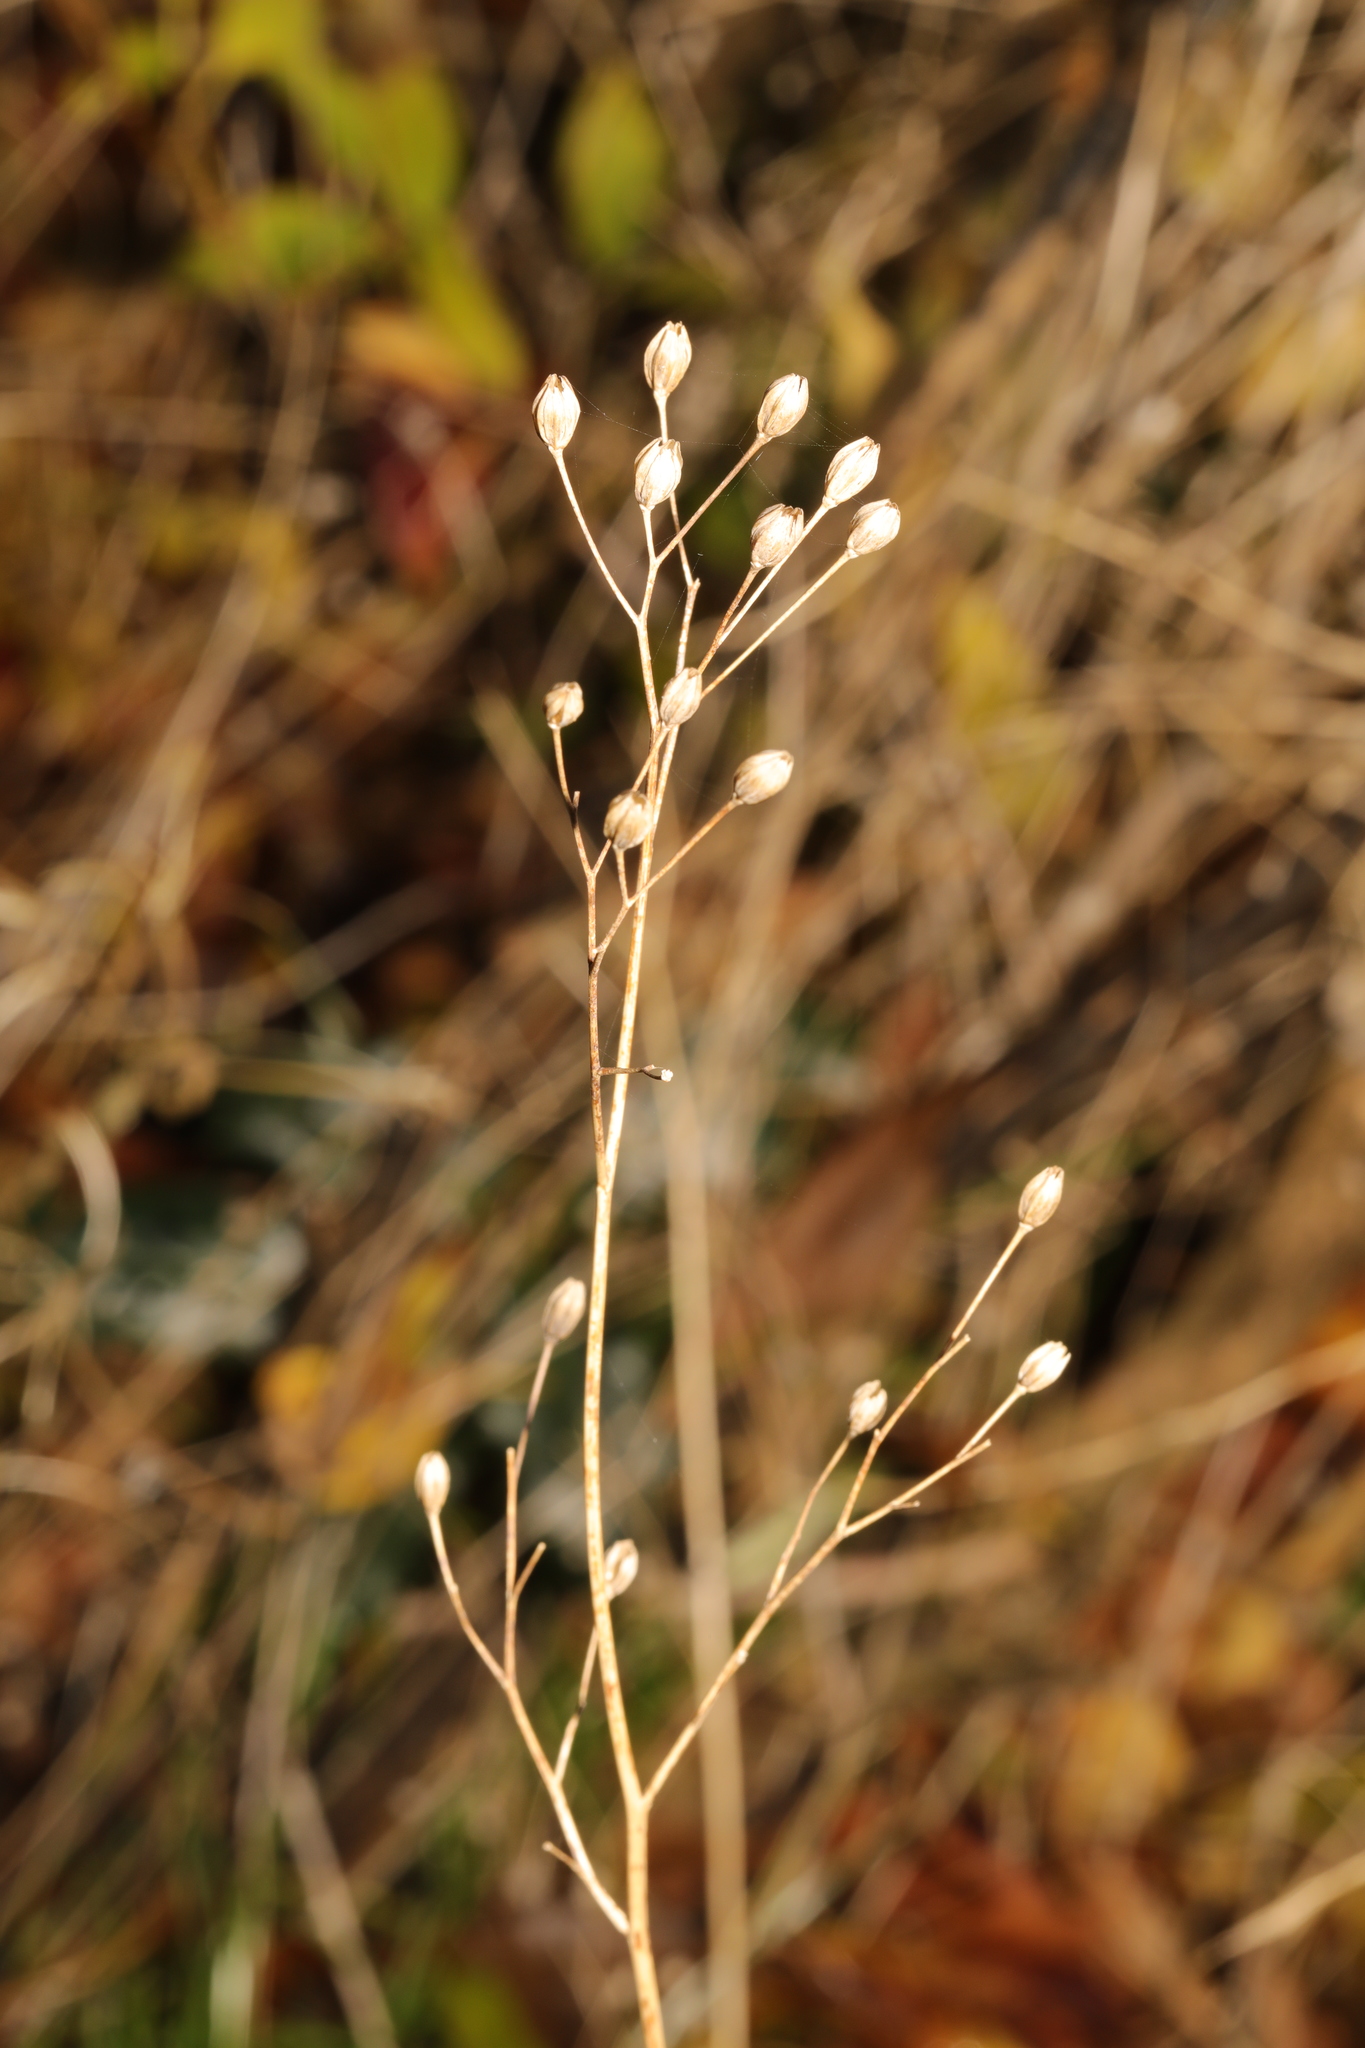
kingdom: Plantae
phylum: Tracheophyta
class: Magnoliopsida
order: Asterales
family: Asteraceae
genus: Lapsana
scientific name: Lapsana communis
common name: Nipplewort
